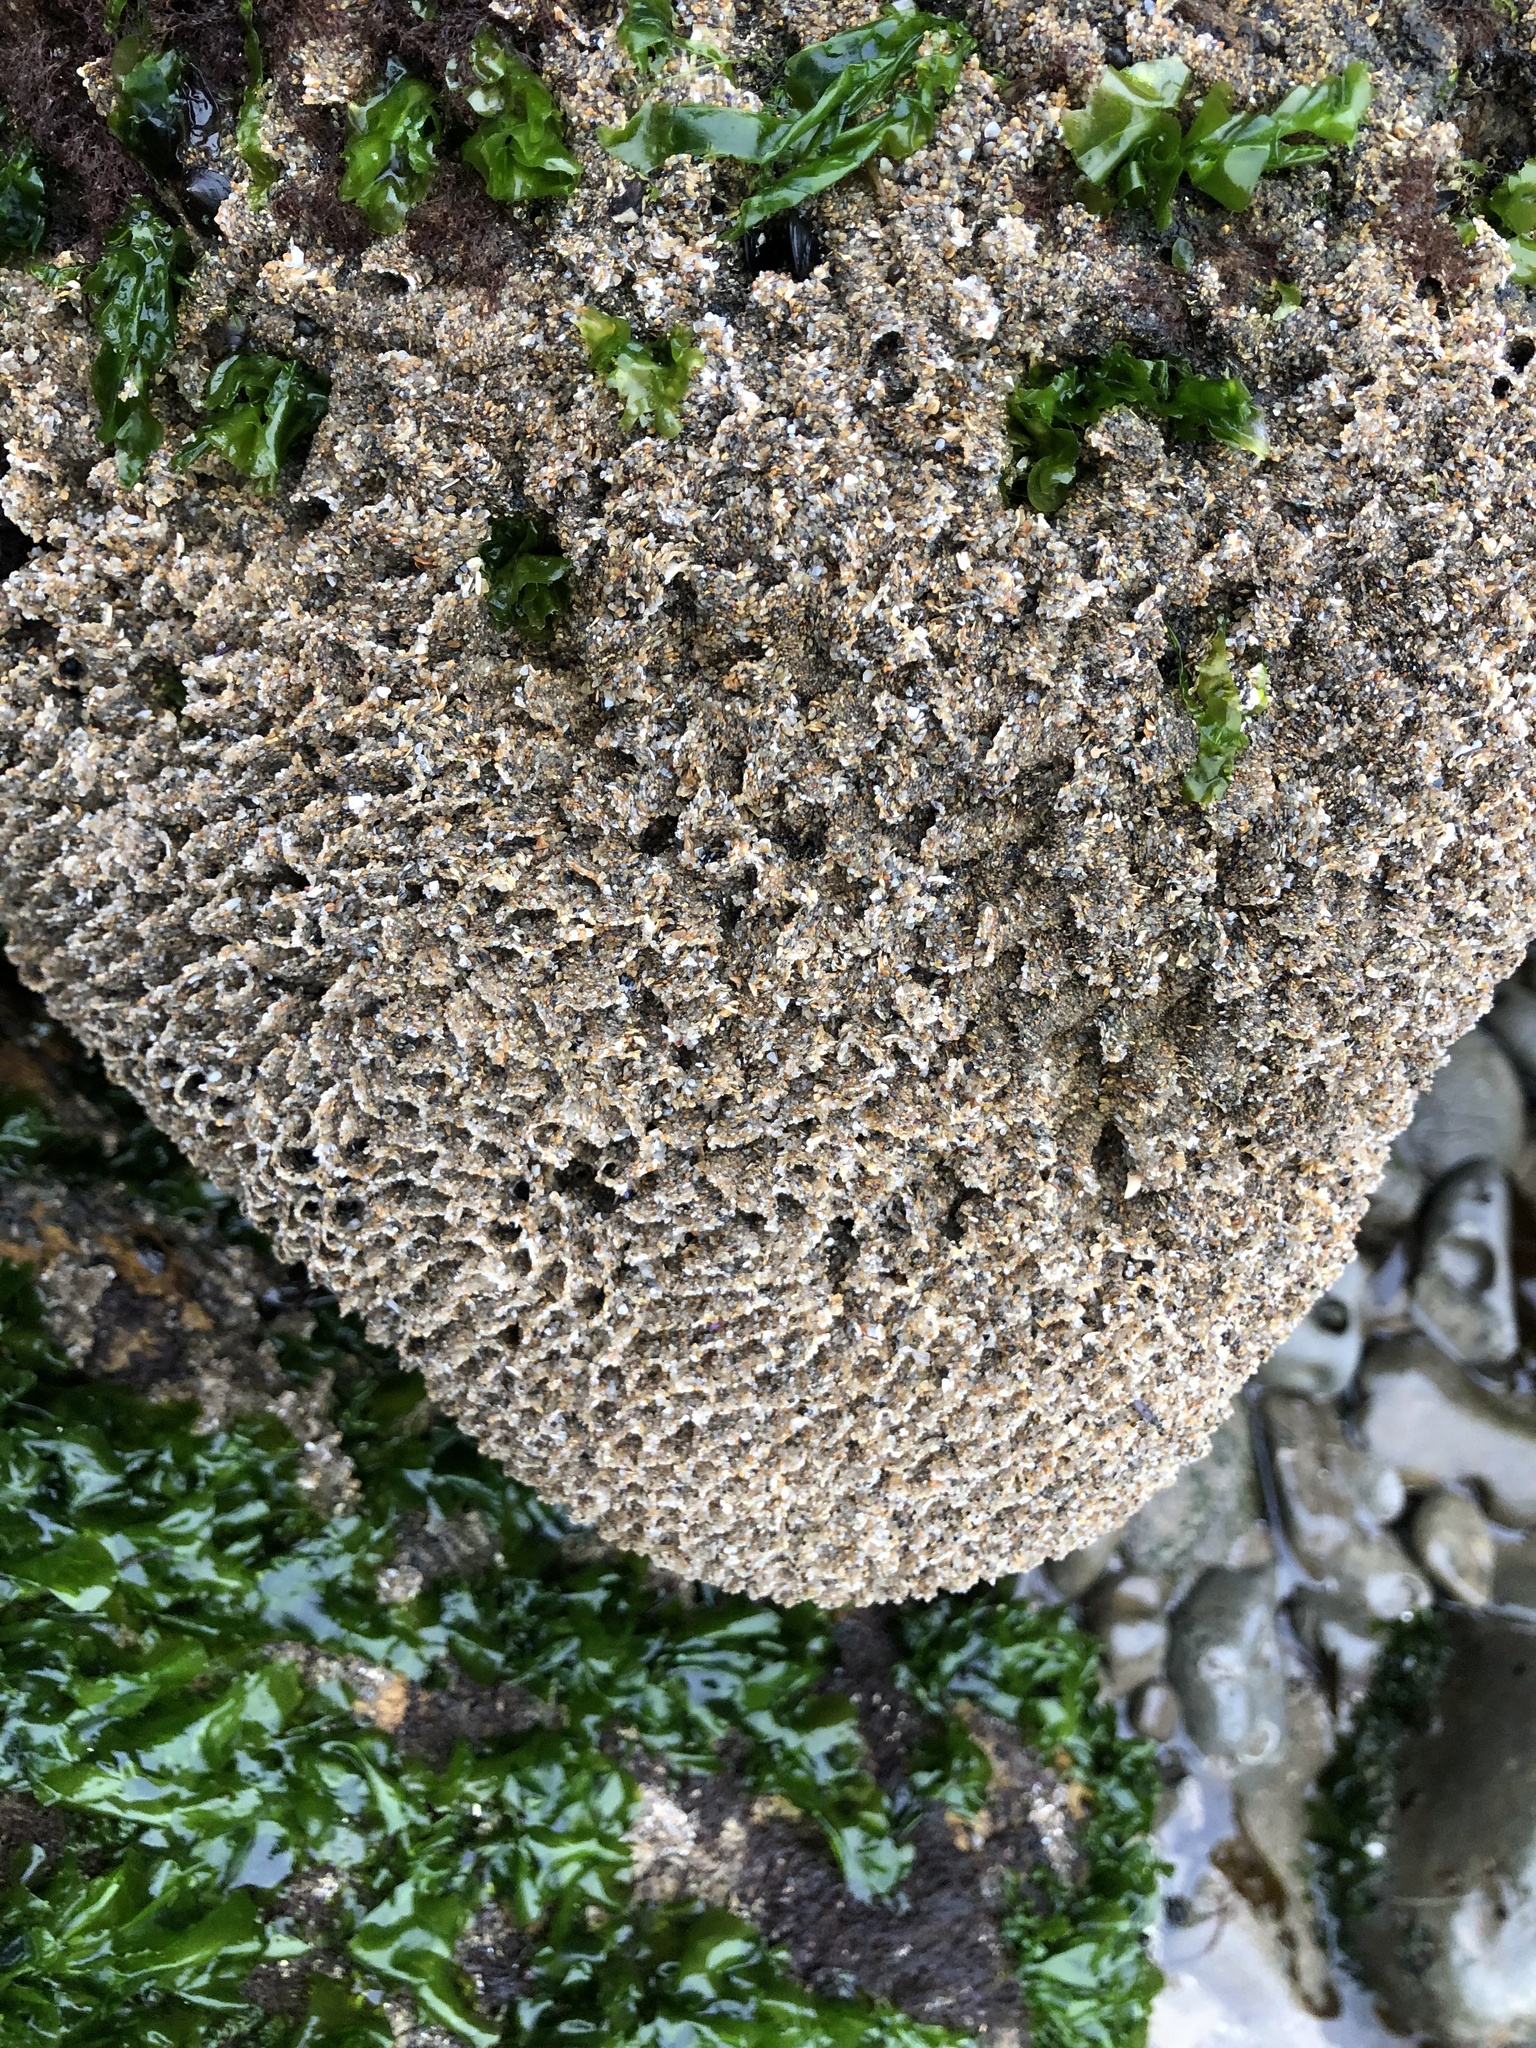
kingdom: Animalia
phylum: Annelida
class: Polychaeta
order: Sabellida
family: Sabellariidae
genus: Phragmatopoma
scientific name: Phragmatopoma californica
